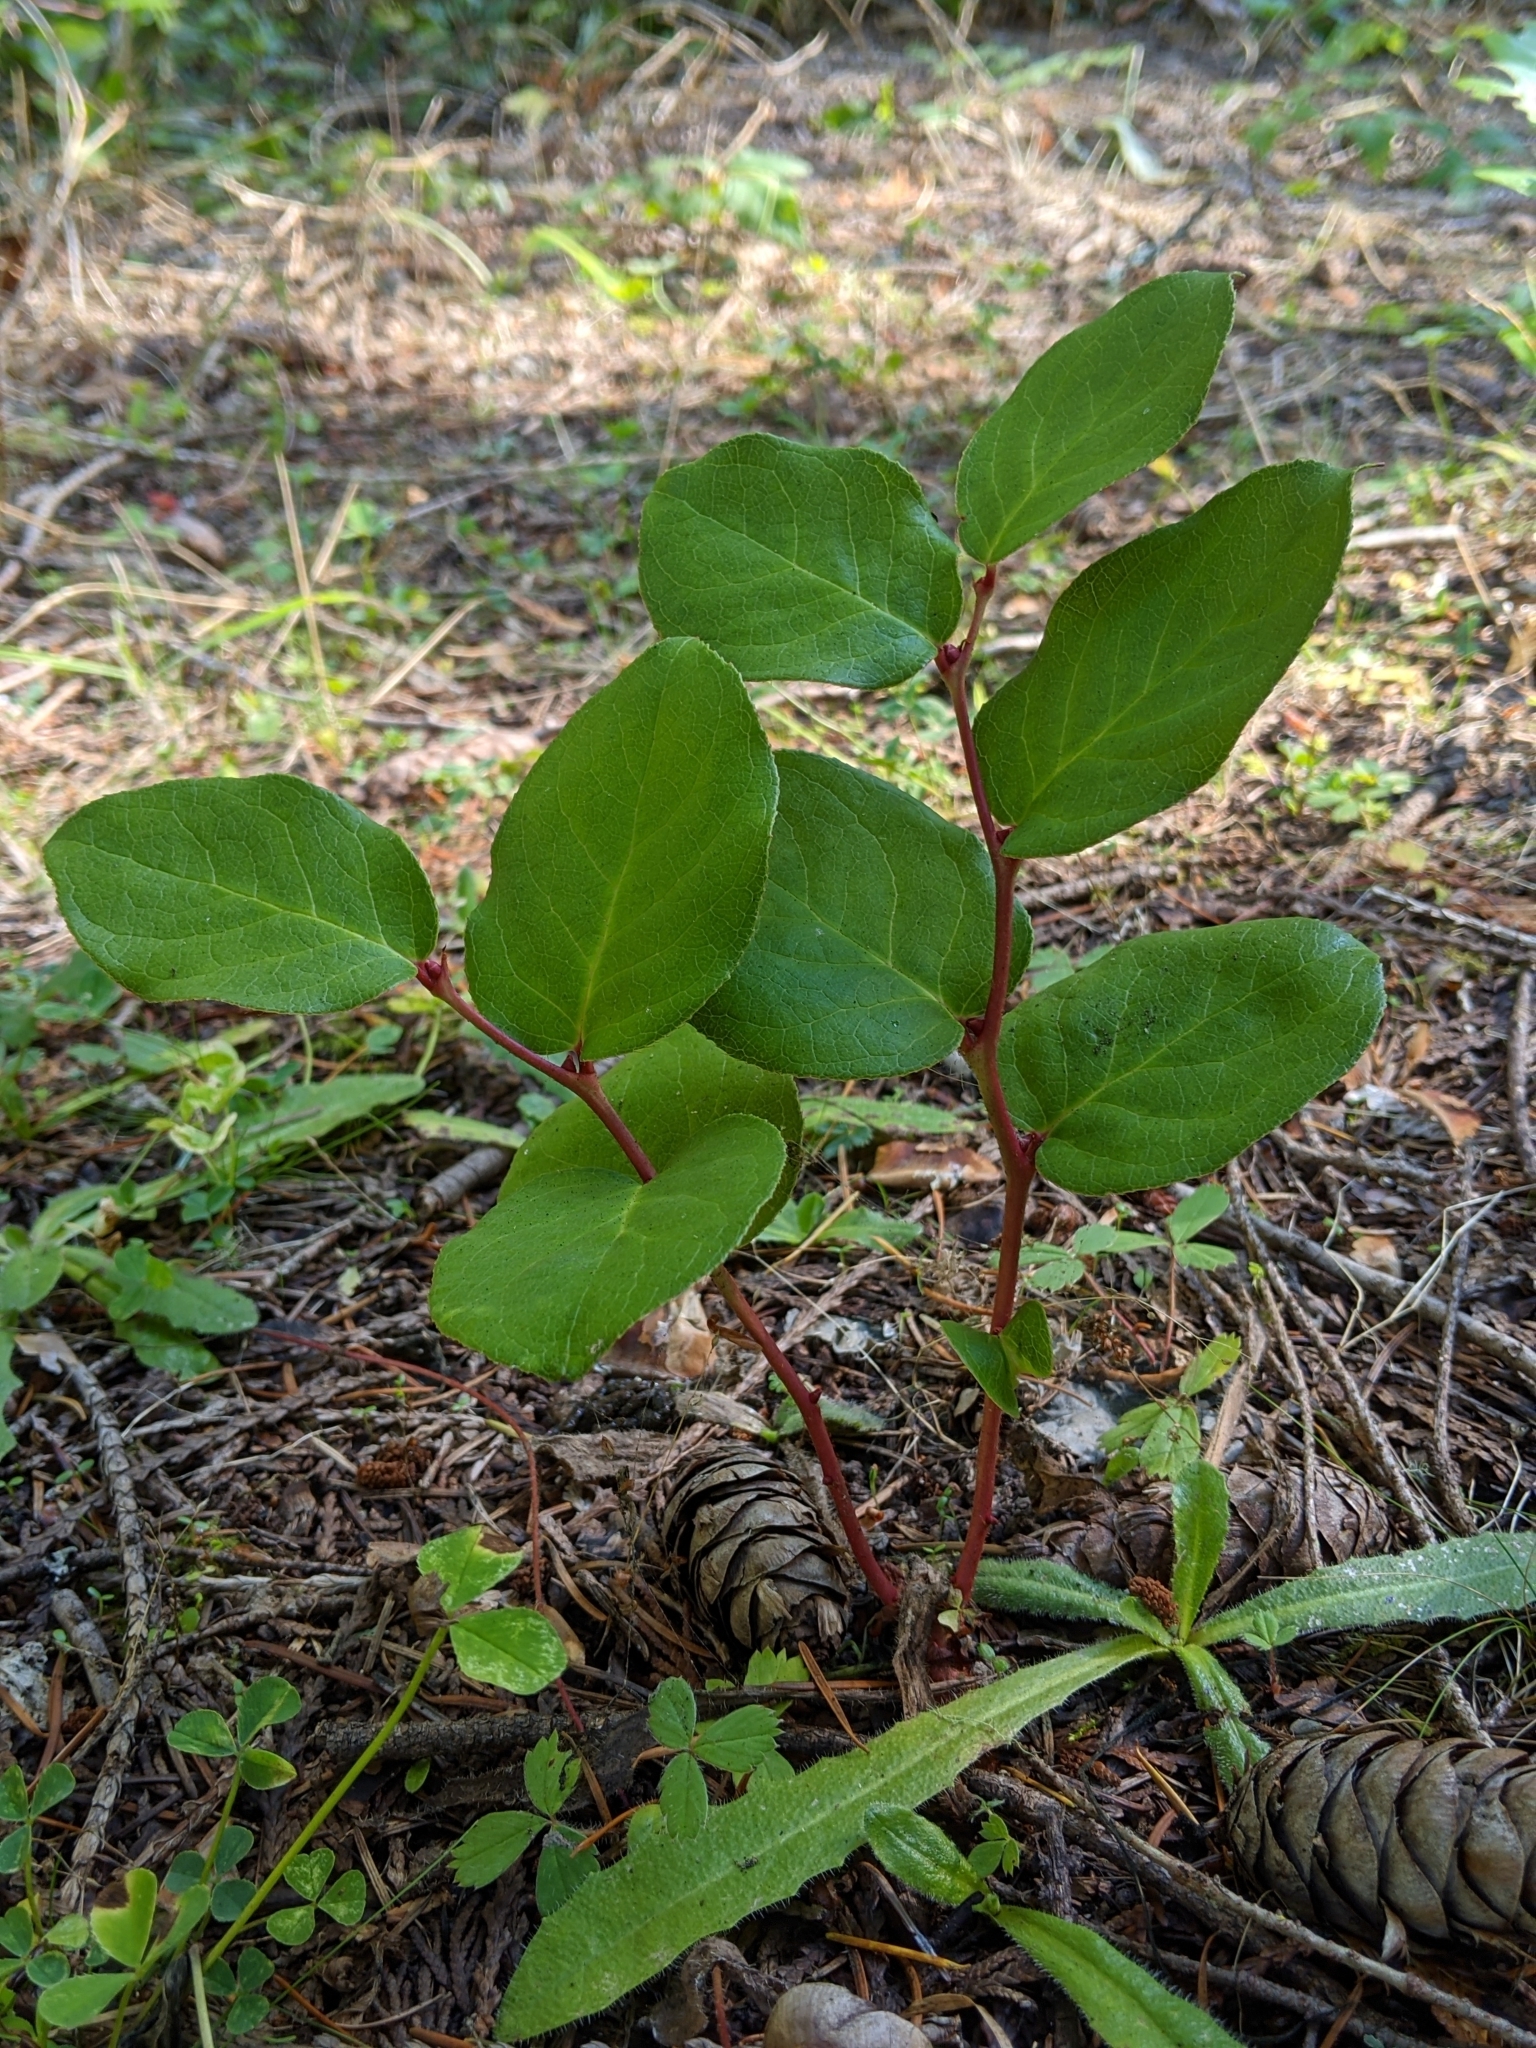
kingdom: Plantae
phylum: Tracheophyta
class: Magnoliopsida
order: Ericales
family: Ericaceae
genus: Gaultheria
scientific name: Gaultheria shallon
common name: Shallon
